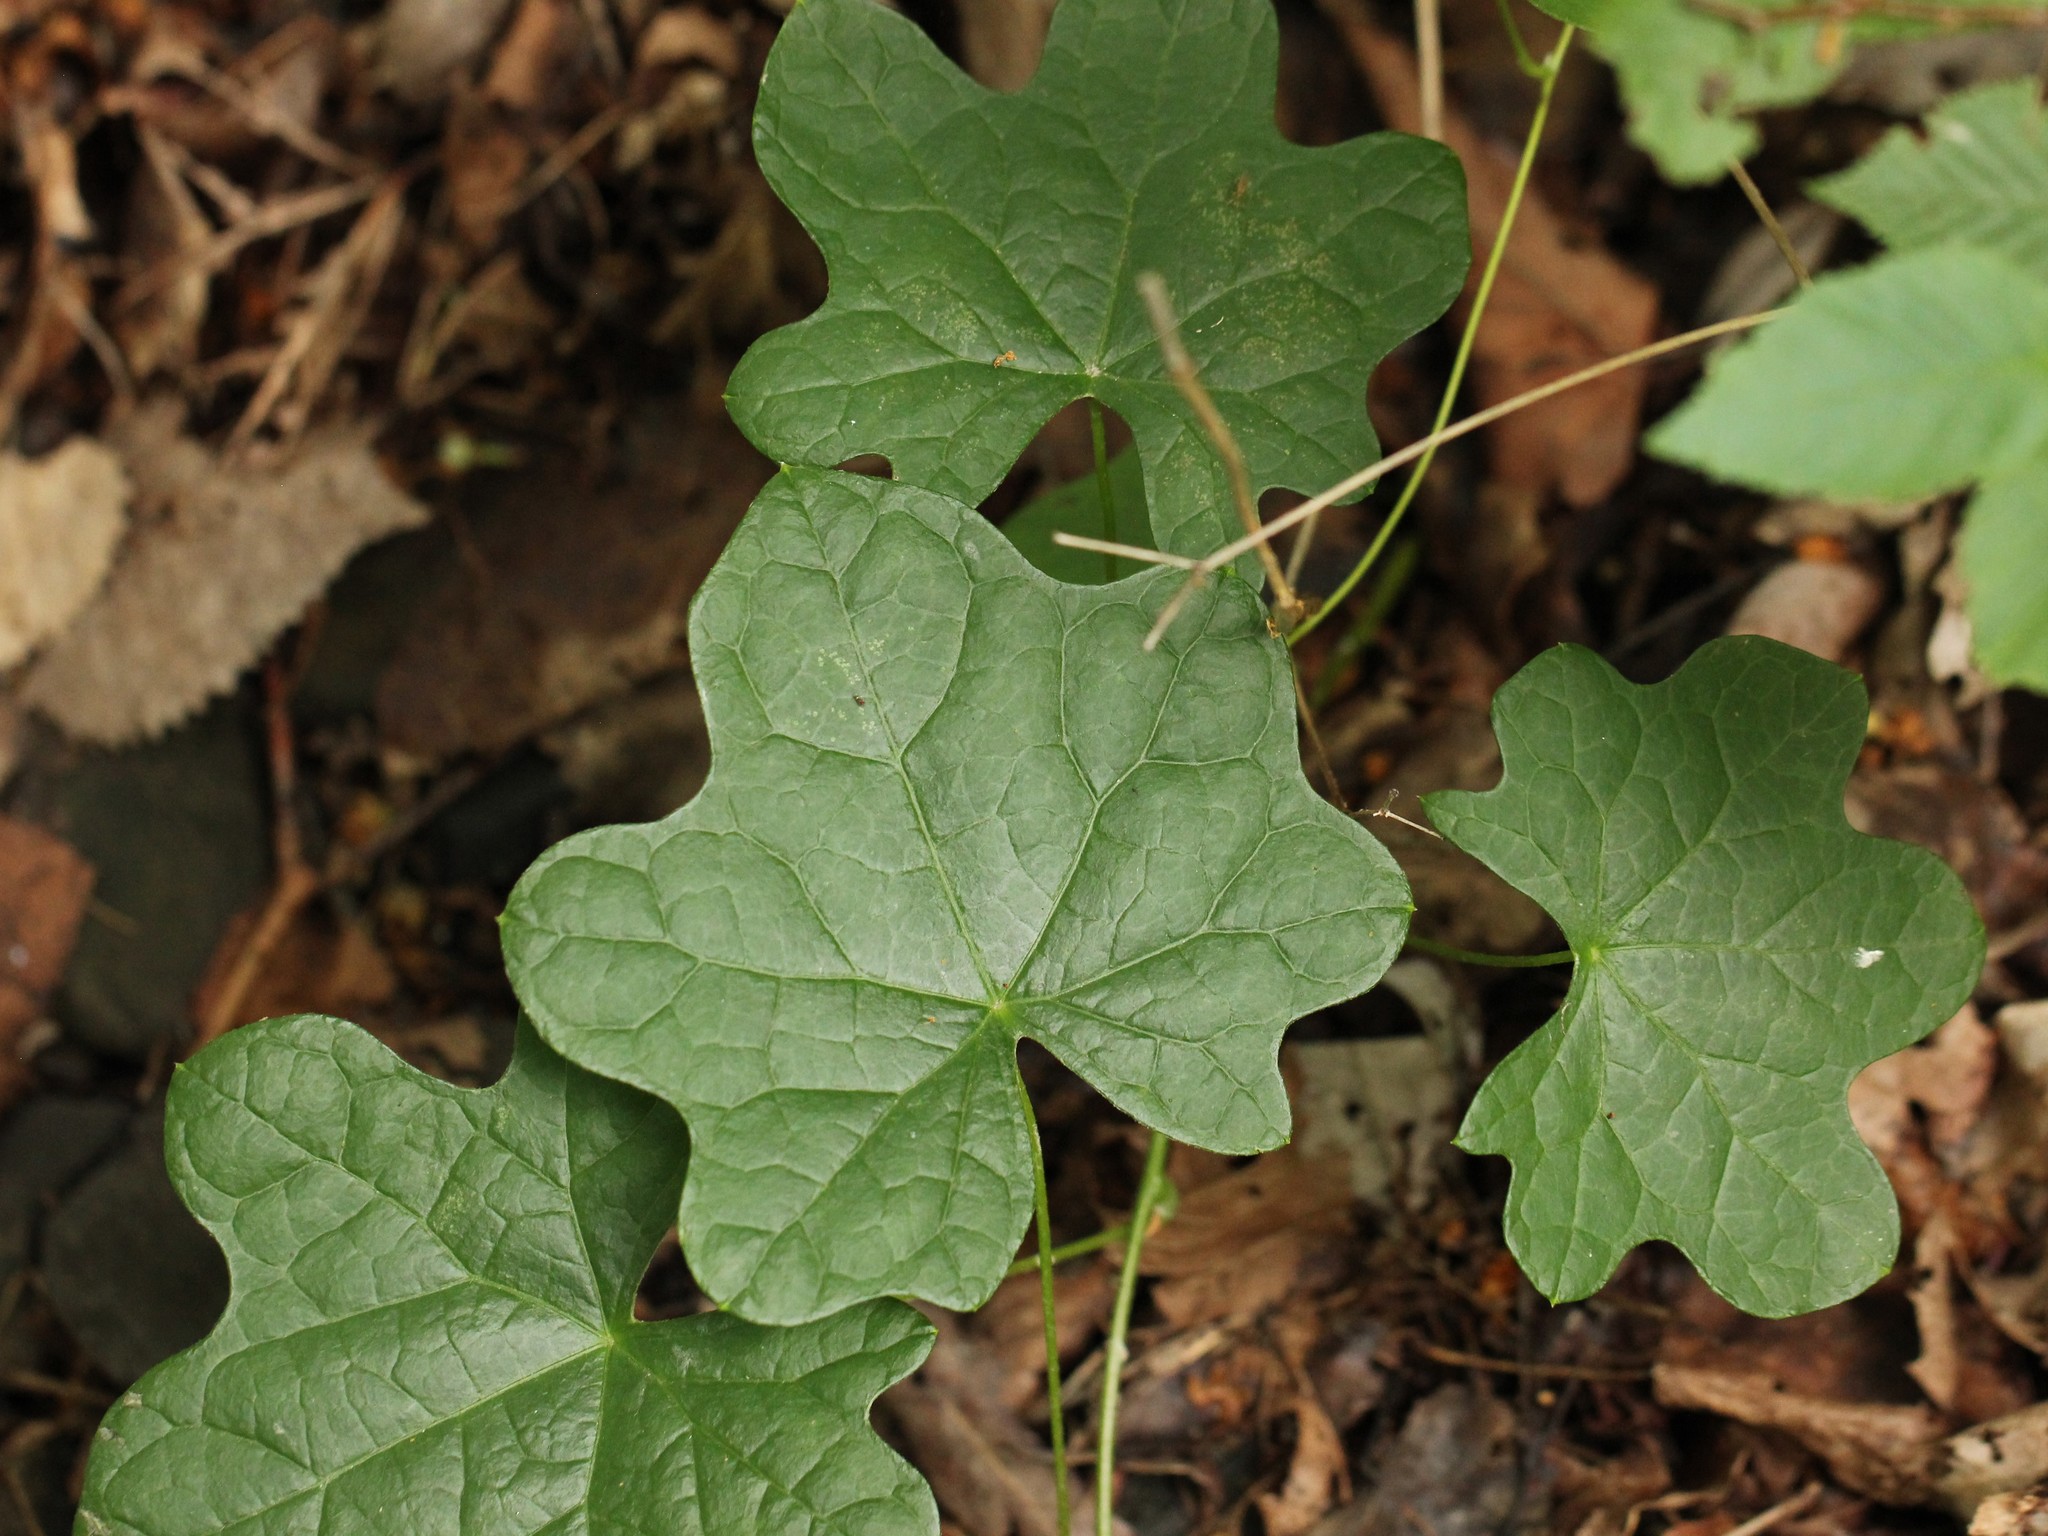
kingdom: Plantae
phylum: Tracheophyta
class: Magnoliopsida
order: Ranunculales
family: Menispermaceae
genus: Menispermum
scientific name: Menispermum canadense
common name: Moonseed
